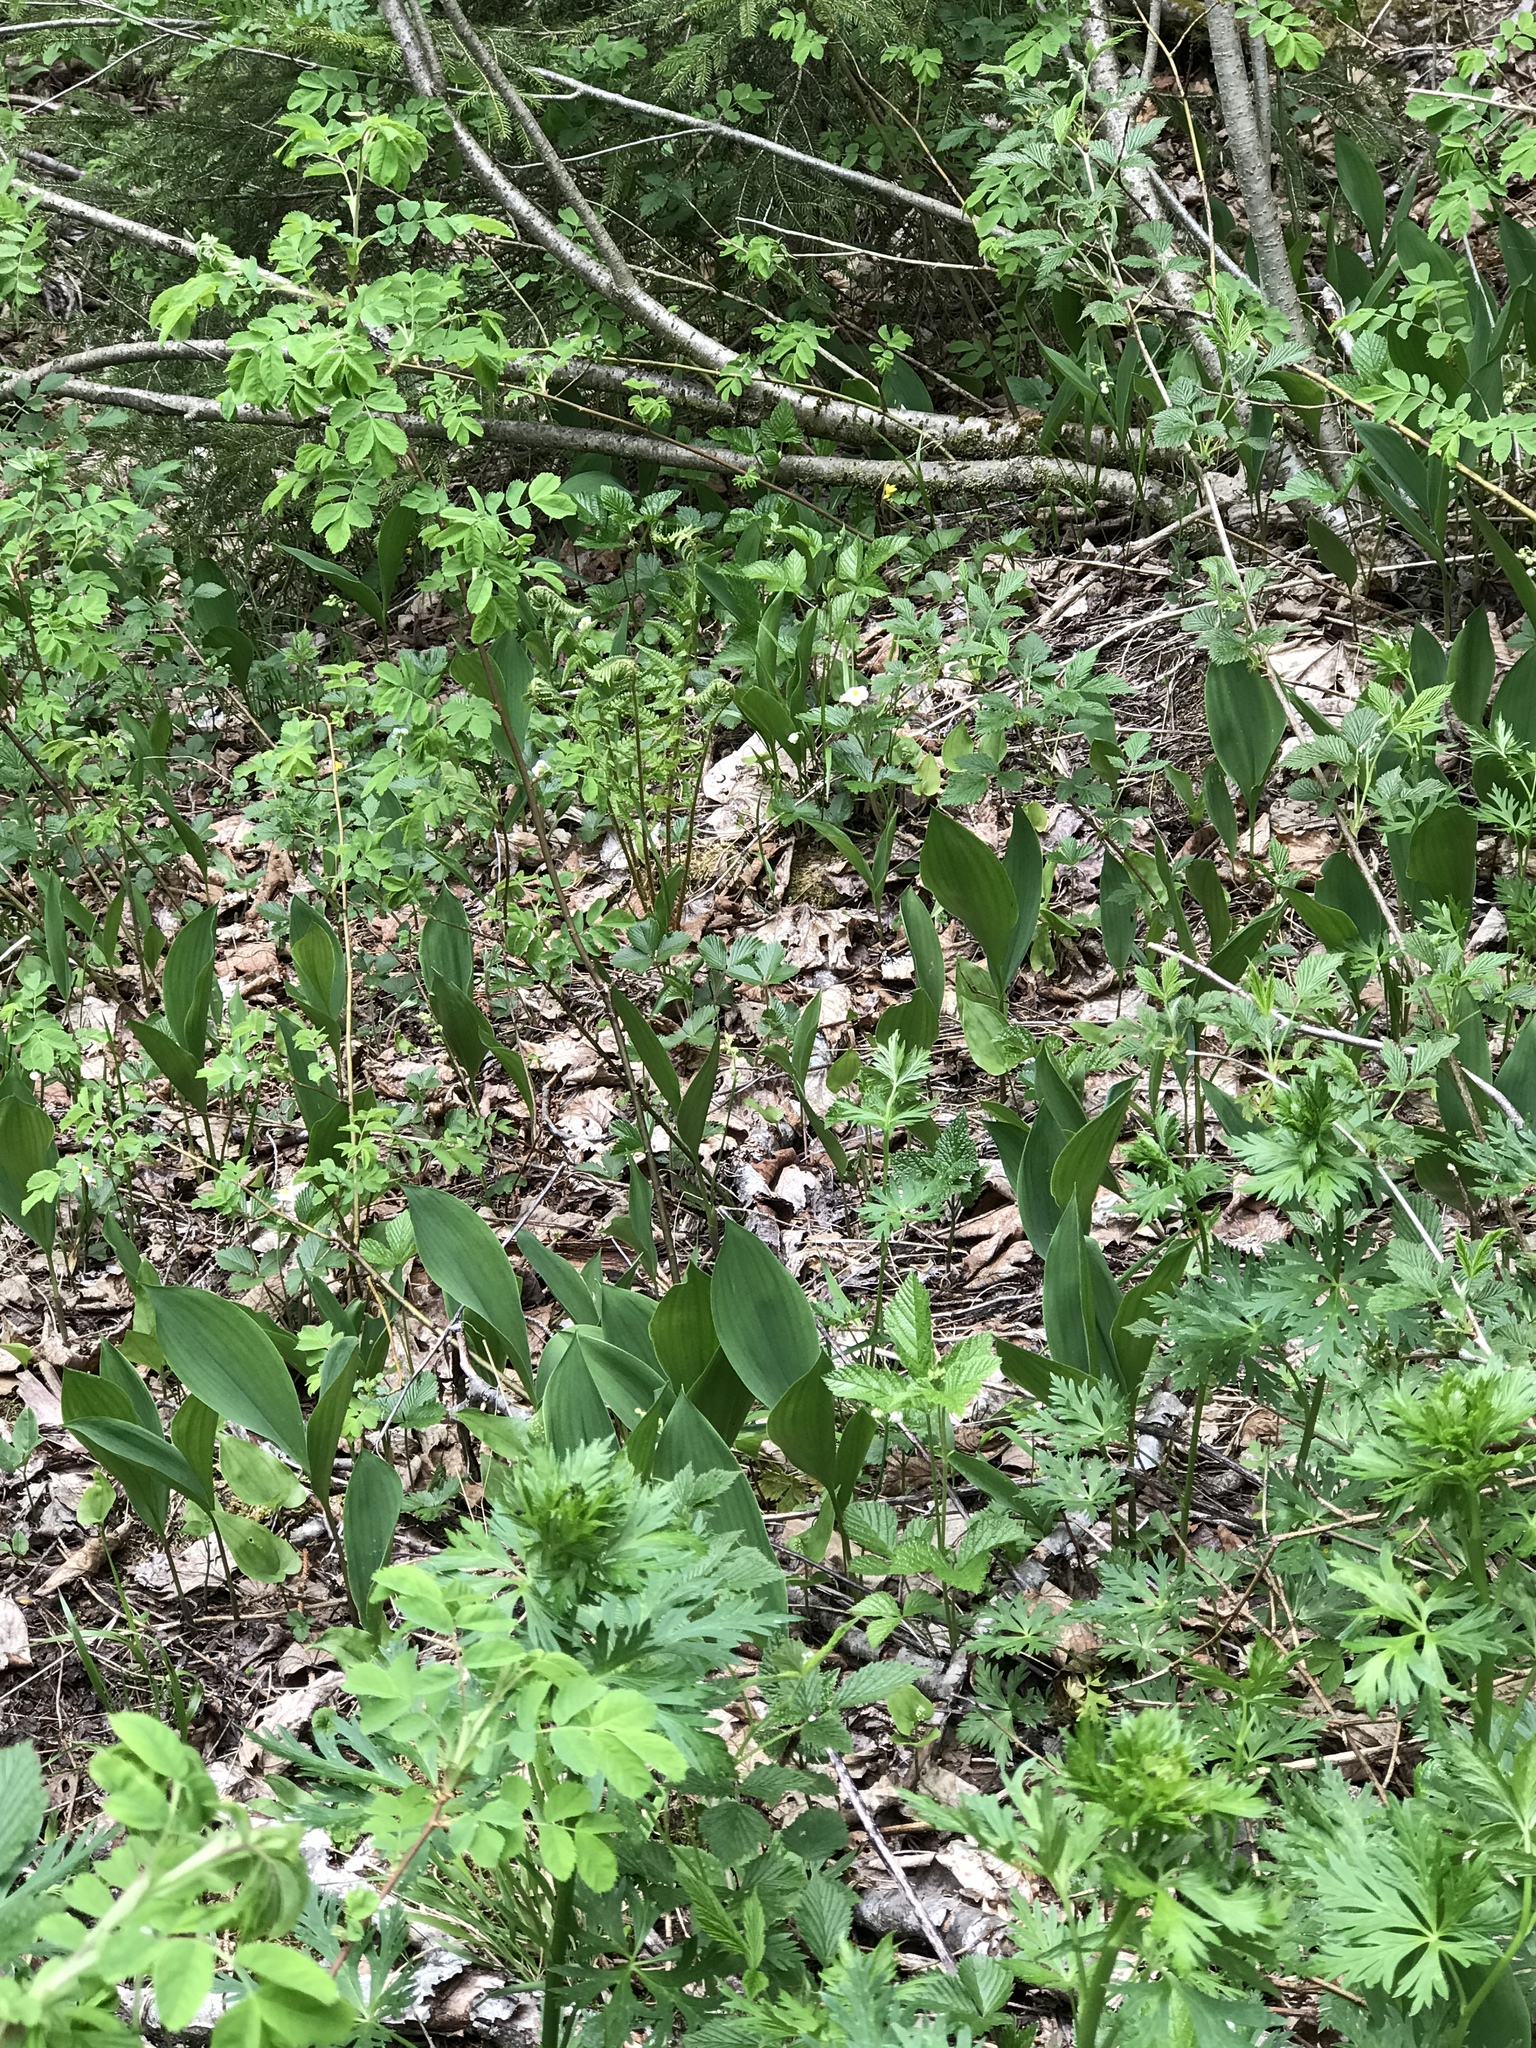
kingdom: Plantae
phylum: Tracheophyta
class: Liliopsida
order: Asparagales
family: Asparagaceae
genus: Convallaria
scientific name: Convallaria majalis
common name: Lily-of-the-valley
